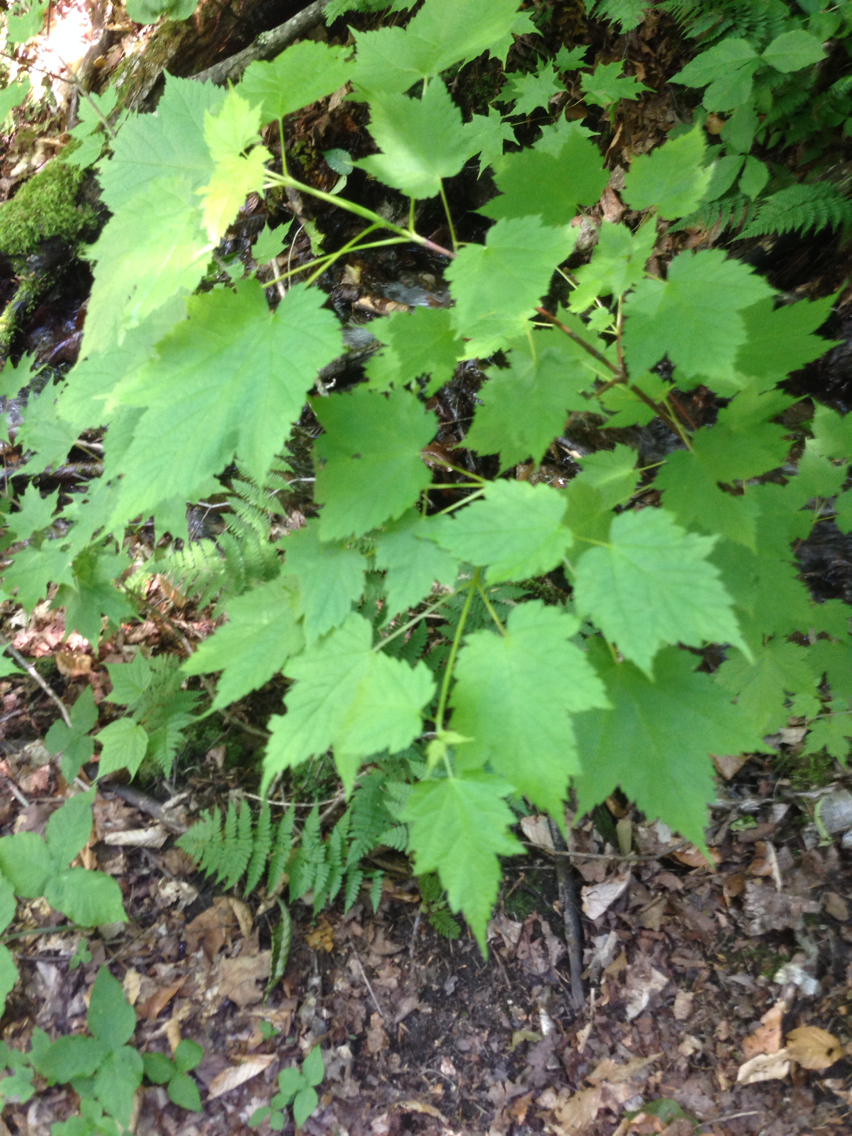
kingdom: Plantae
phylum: Tracheophyta
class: Magnoliopsida
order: Sapindales
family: Sapindaceae
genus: Acer
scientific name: Acer spicatum
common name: Mountain maple
